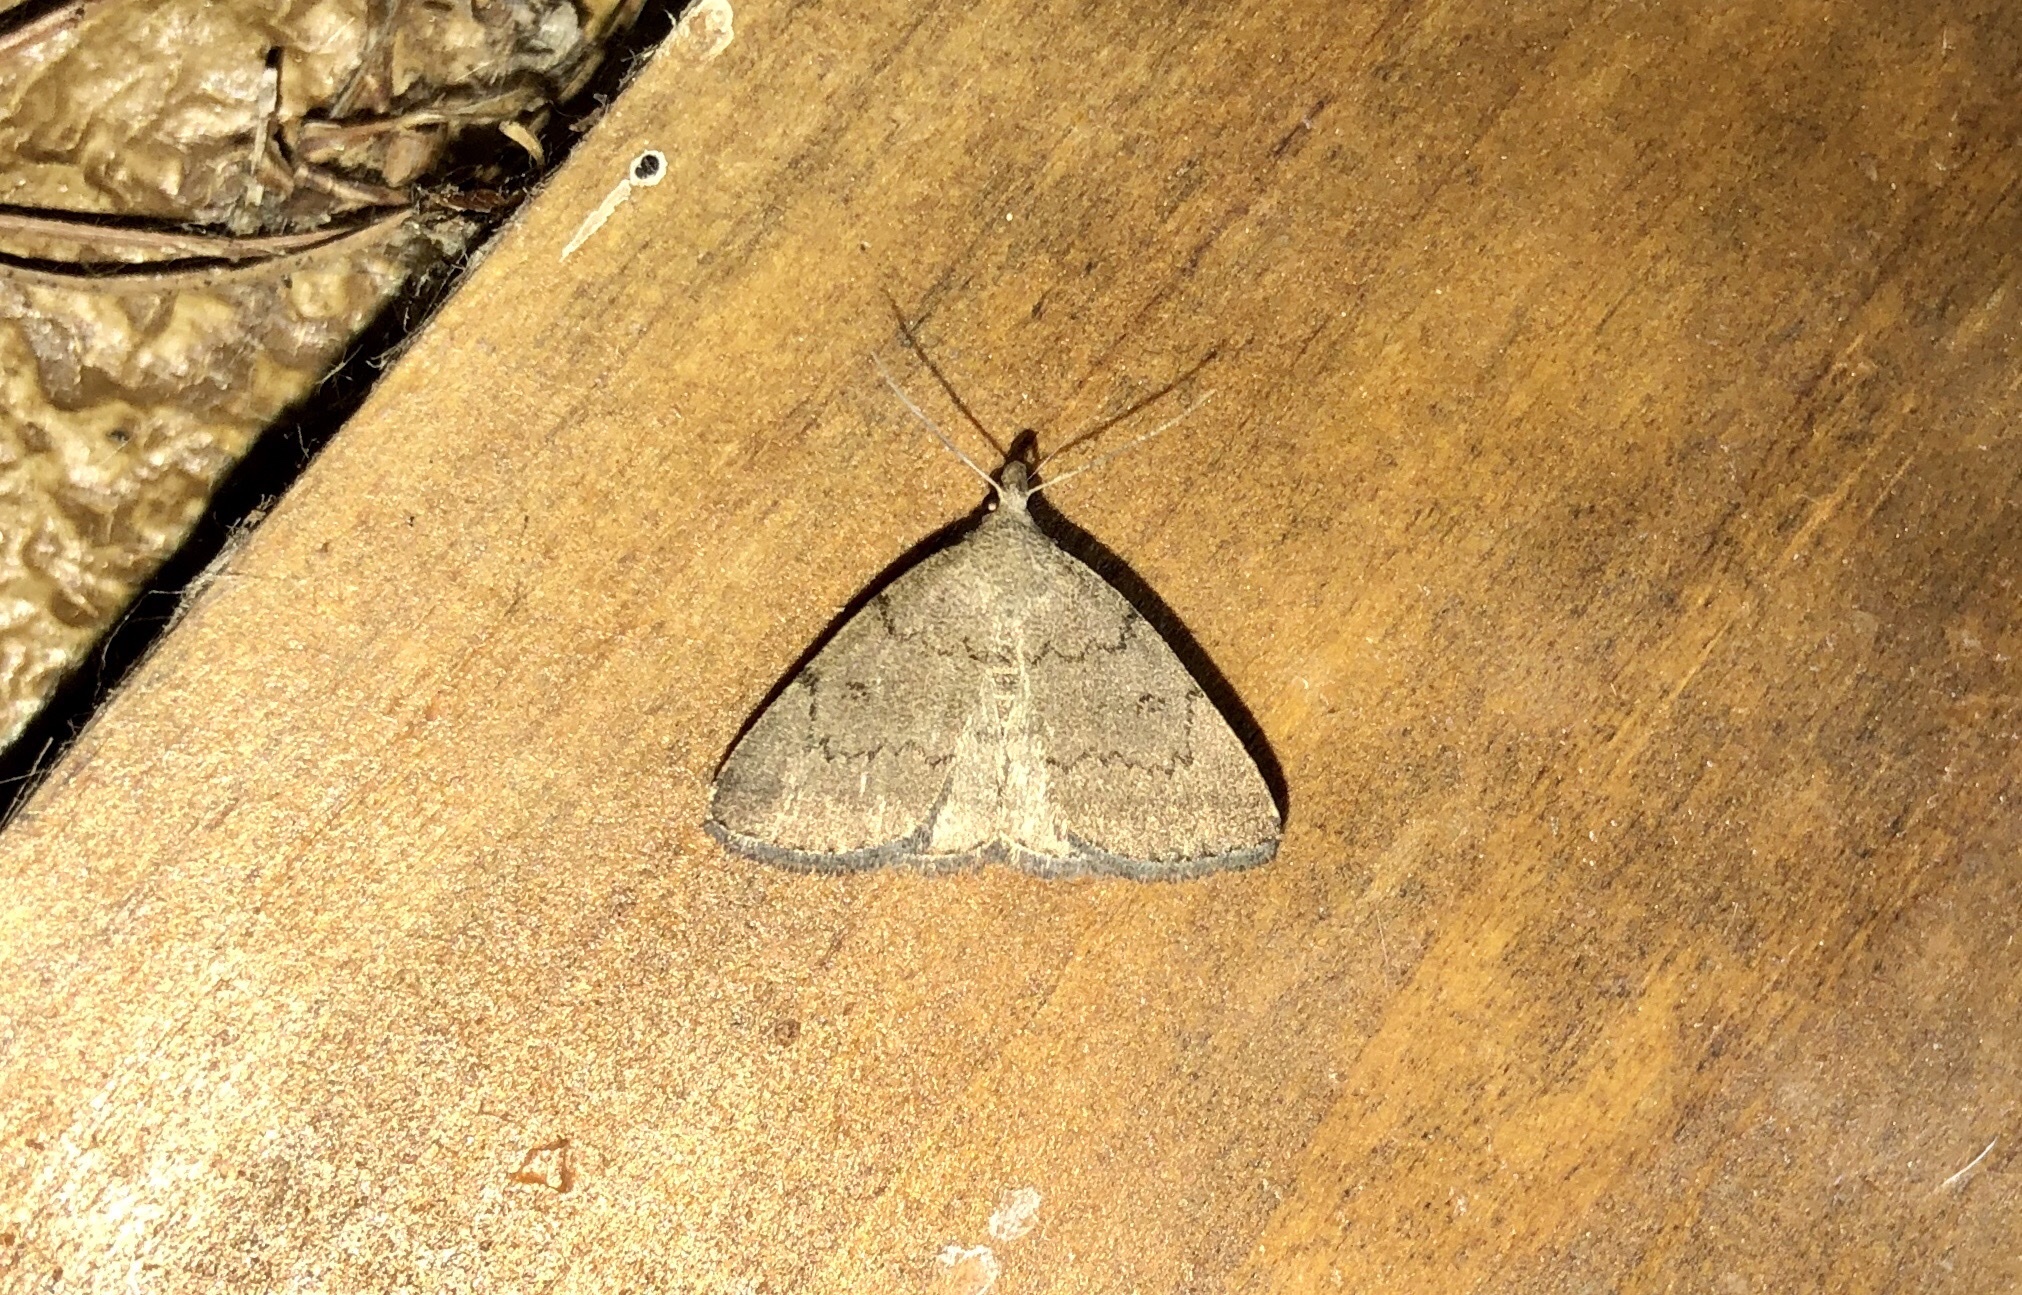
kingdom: Animalia
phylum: Arthropoda
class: Insecta
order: Lepidoptera
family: Erebidae
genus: Zanclognatha
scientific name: Zanclognatha protumnusalis
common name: Complex fan-foot
